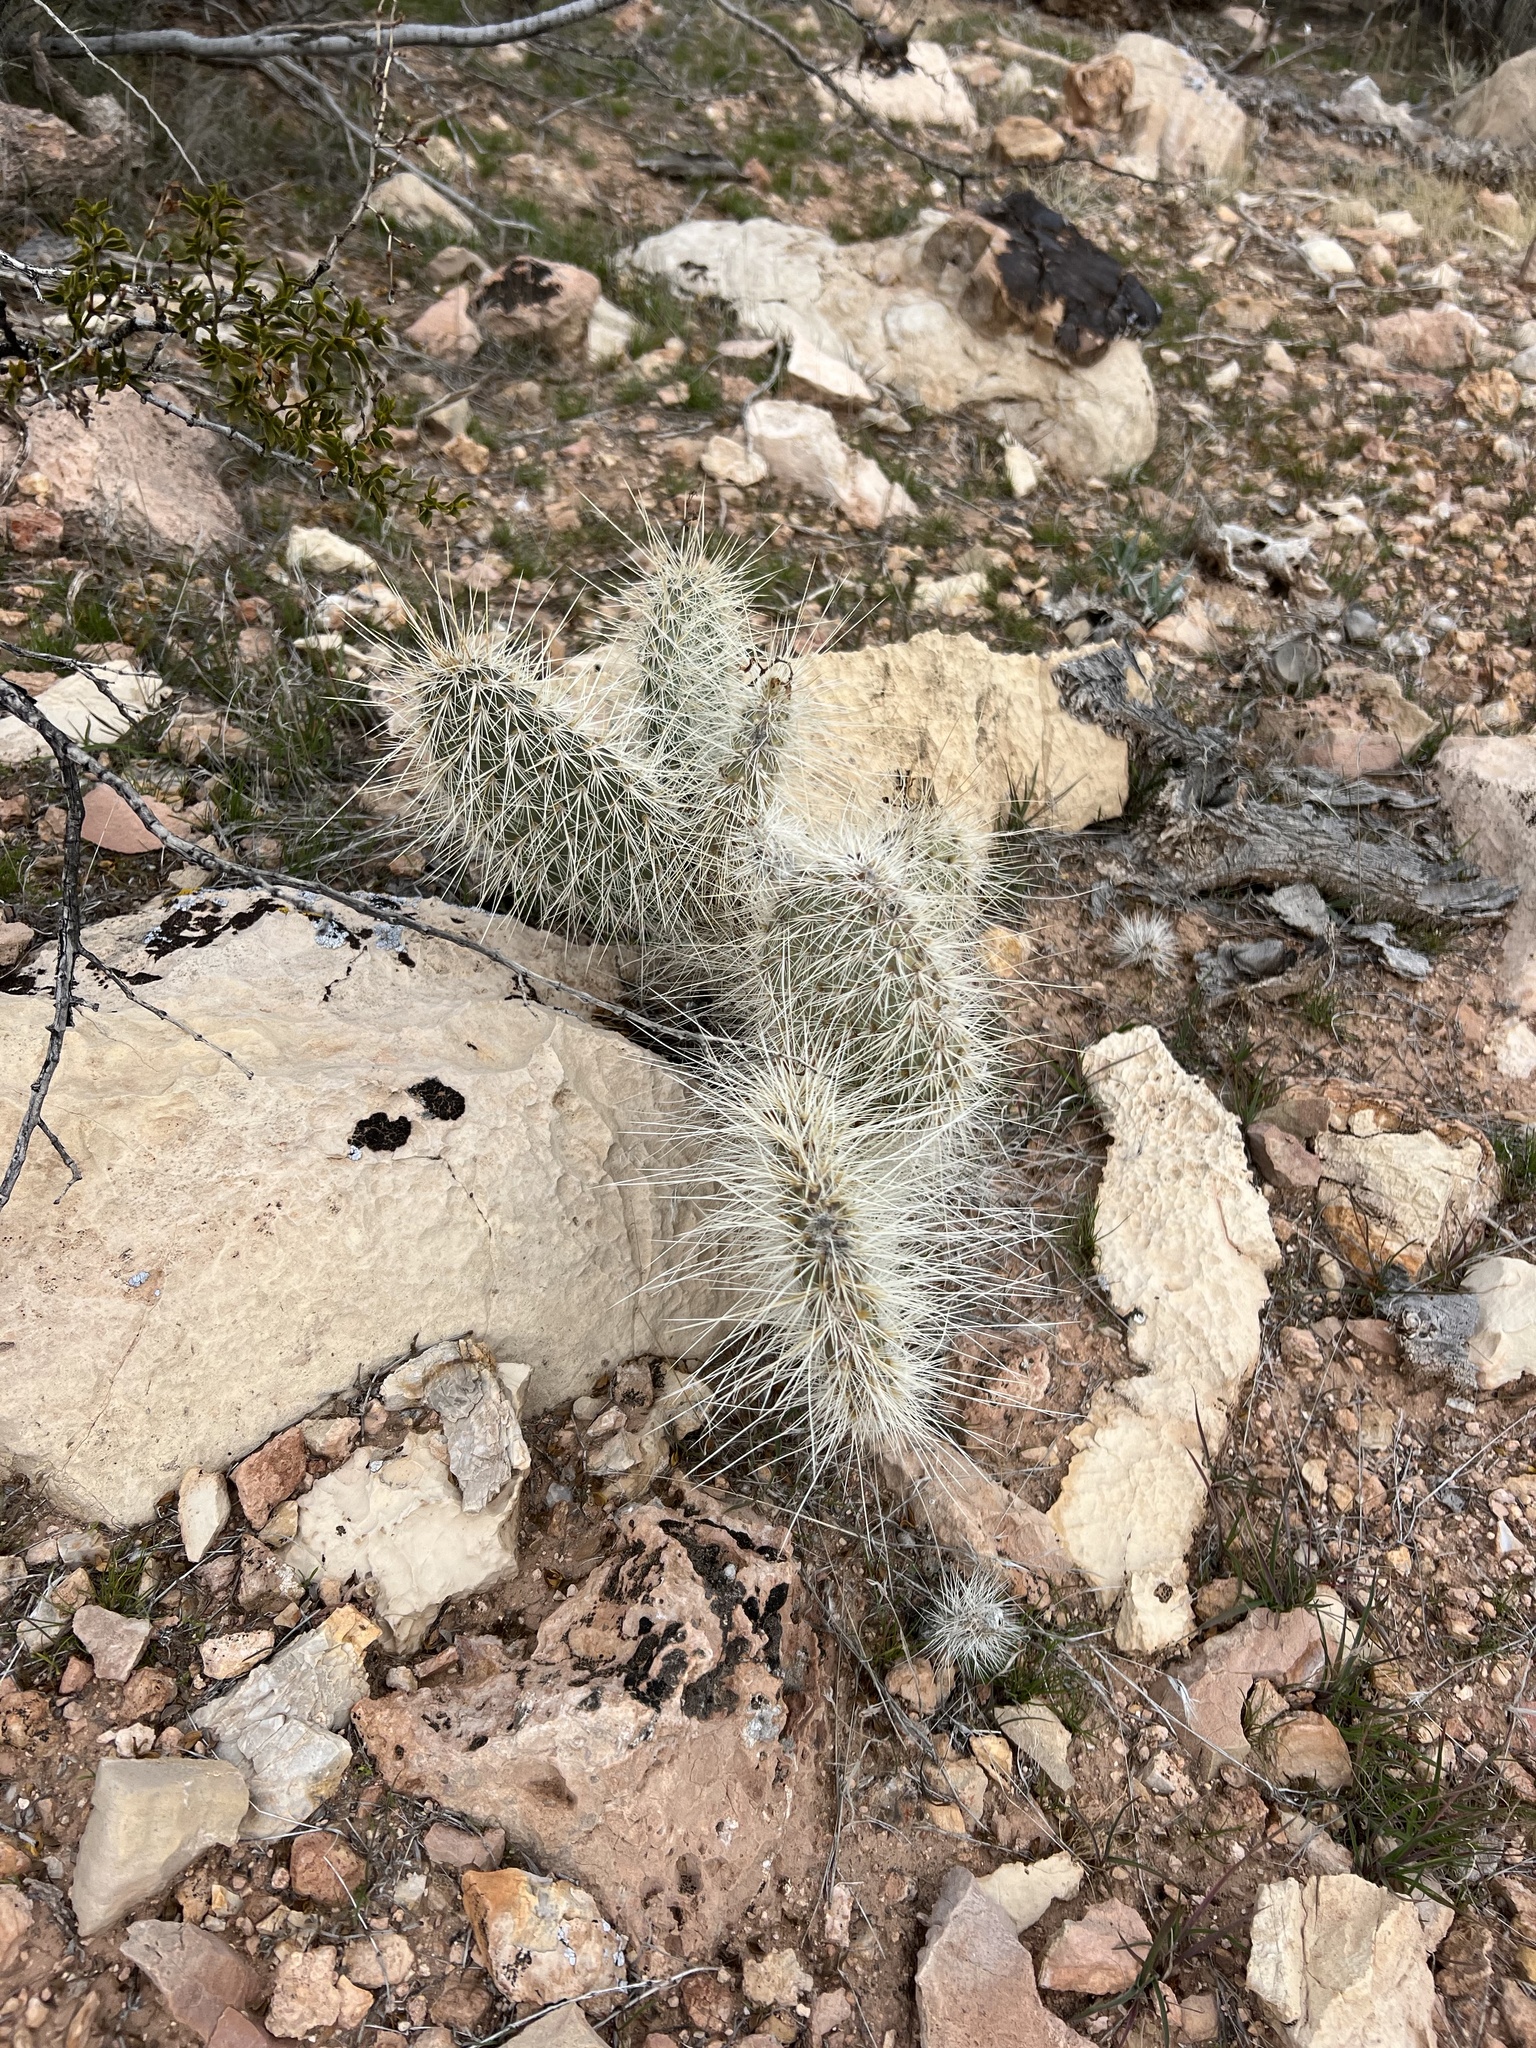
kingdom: Plantae
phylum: Tracheophyta
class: Magnoliopsida
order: Caryophyllales
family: Cactaceae
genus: Opuntia
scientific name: Opuntia polyacantha
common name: Plains prickly-pear
